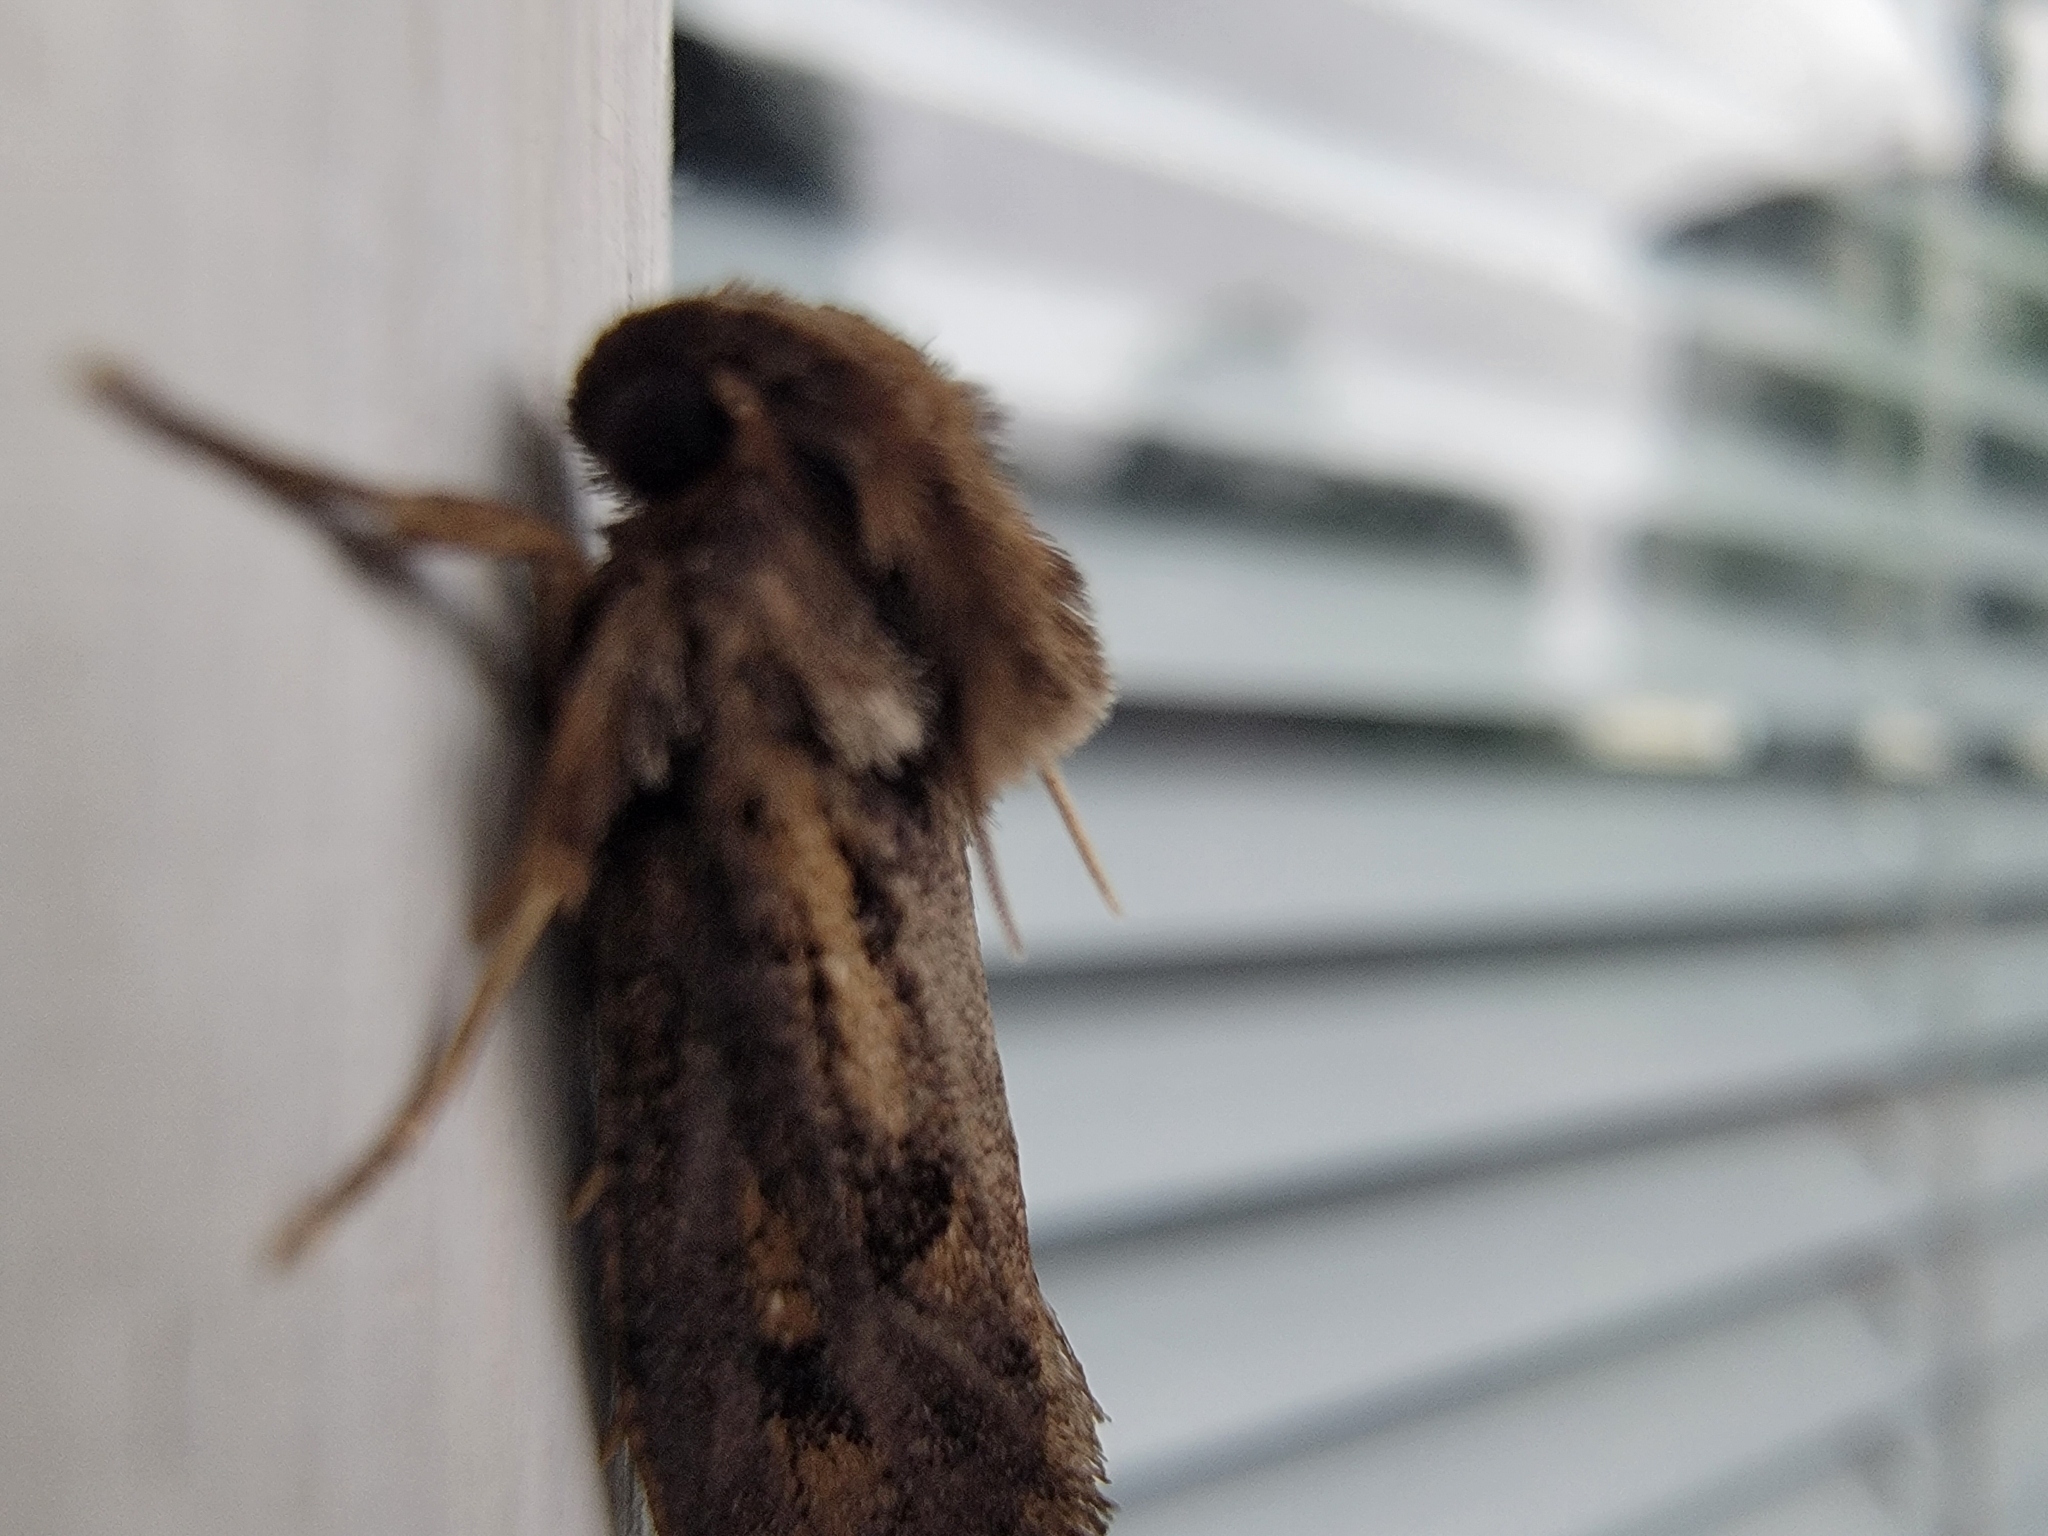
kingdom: Animalia
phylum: Arthropoda
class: Insecta
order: Lepidoptera
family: Tineidae
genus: Acrolophus
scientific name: Acrolophus popeanella
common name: Clemens' grass tubeworm moth
